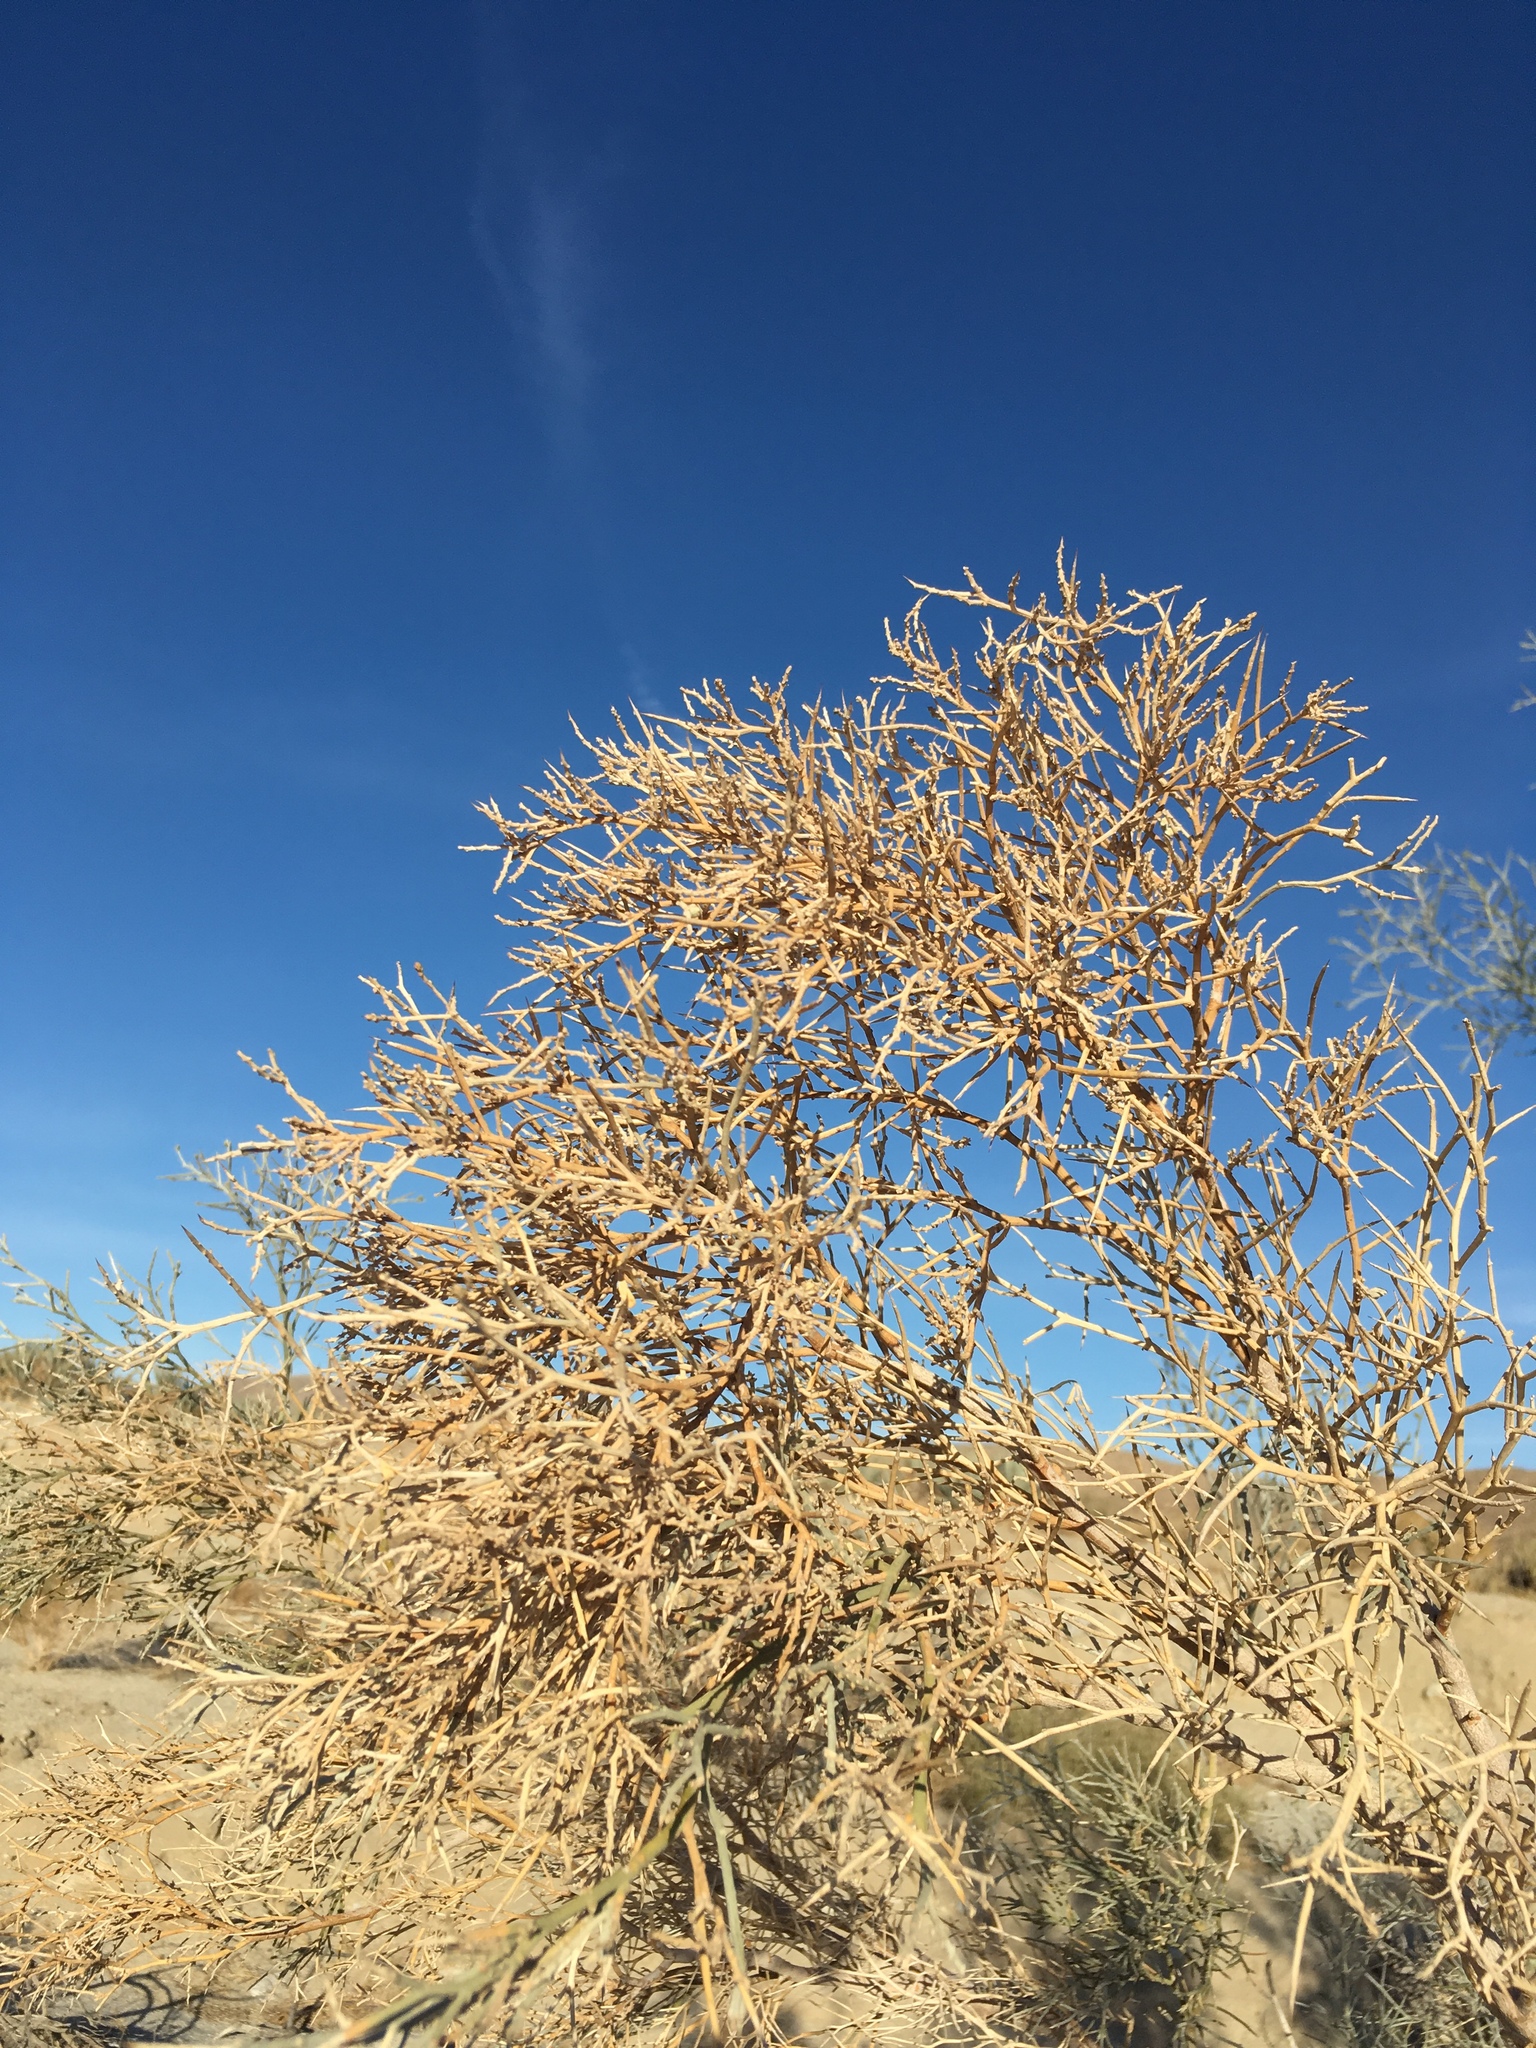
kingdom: Plantae
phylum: Tracheophyta
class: Magnoliopsida
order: Fabales
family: Fabaceae
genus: Psorothamnus
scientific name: Psorothamnus spinosus
